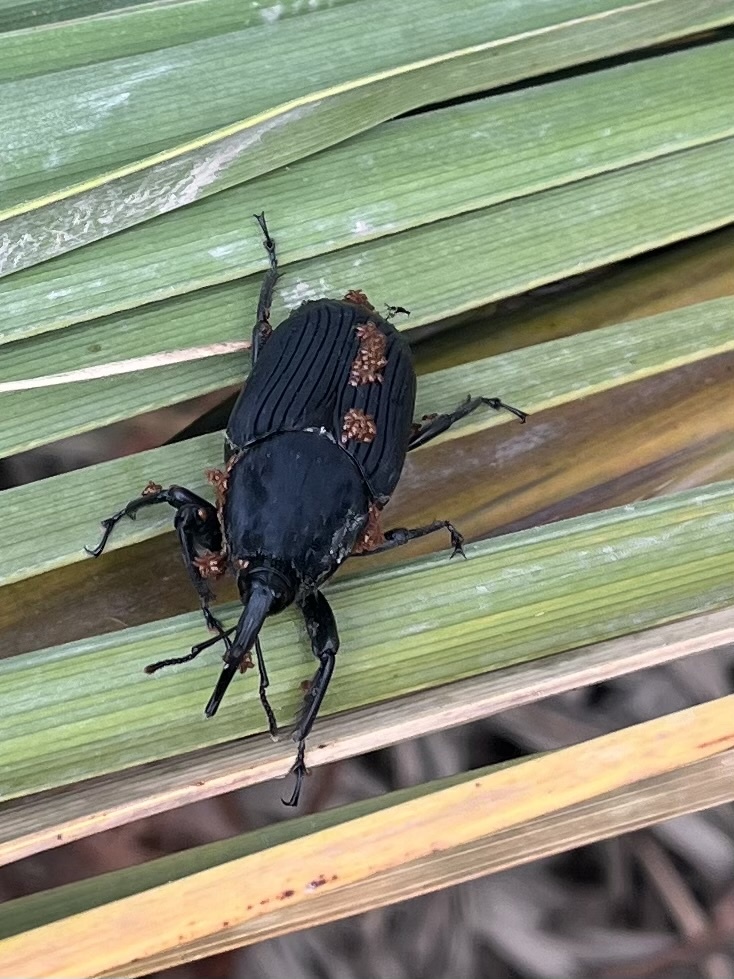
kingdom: Animalia
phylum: Arthropoda
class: Insecta
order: Coleoptera
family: Dryophthoridae
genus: Rhynchophorus
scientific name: Rhynchophorus palmarum
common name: Palm weevil
